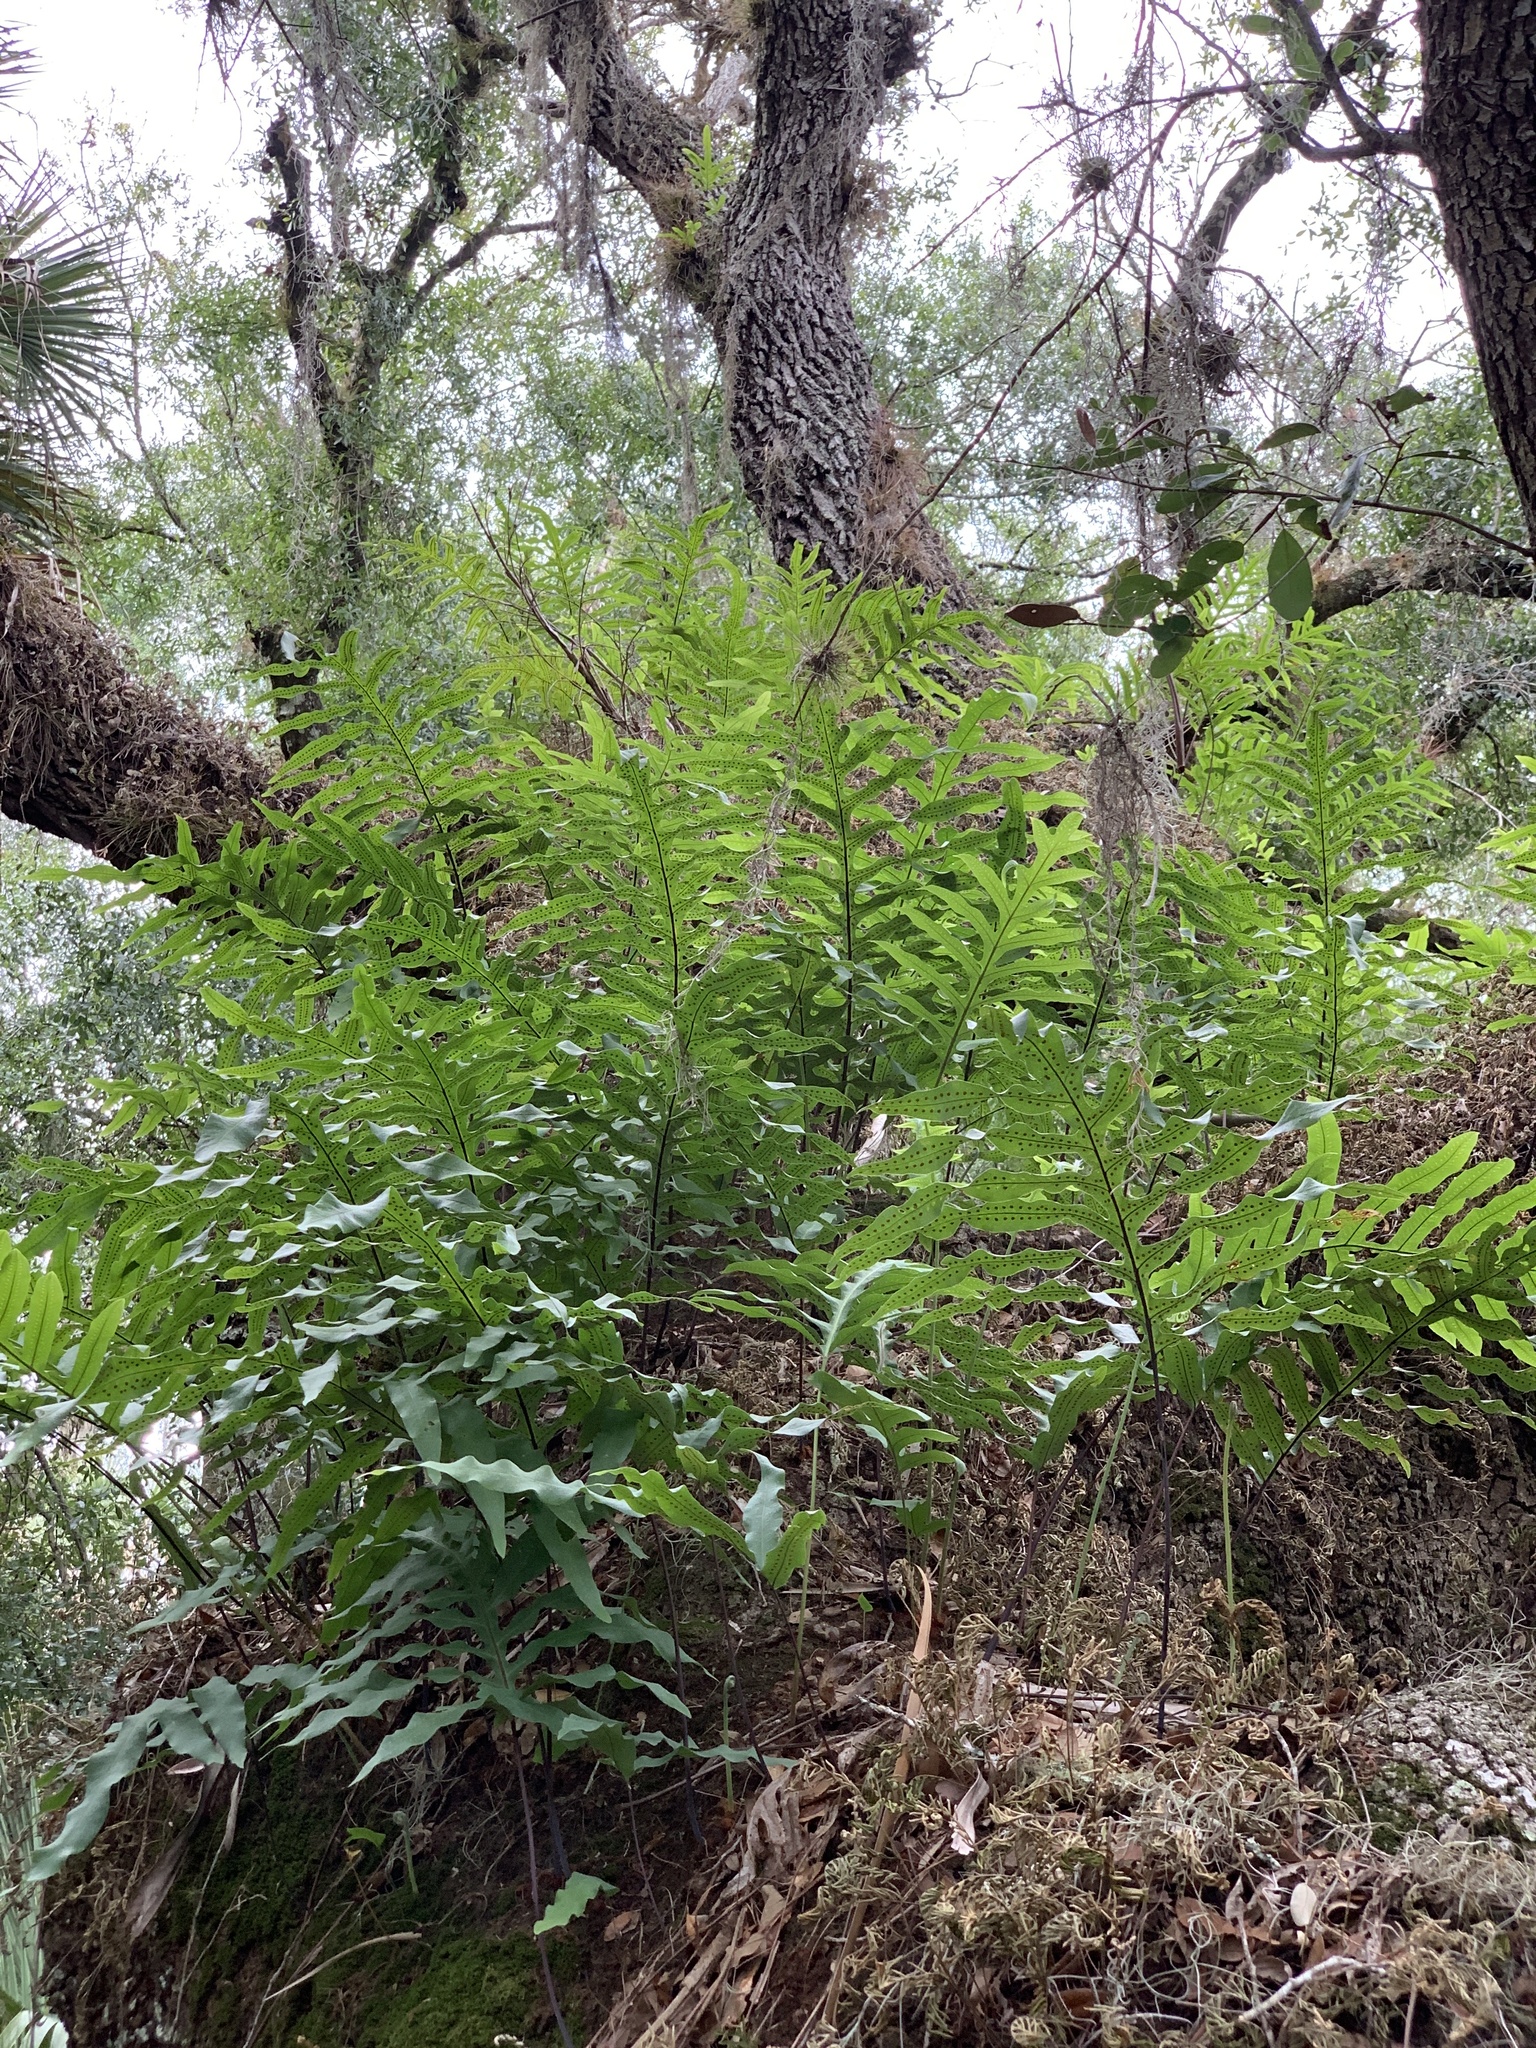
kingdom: Plantae
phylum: Tracheophyta
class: Polypodiopsida
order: Polypodiales
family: Polypodiaceae
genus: Phlebodium
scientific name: Phlebodium aureum
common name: Gold-foot fern
